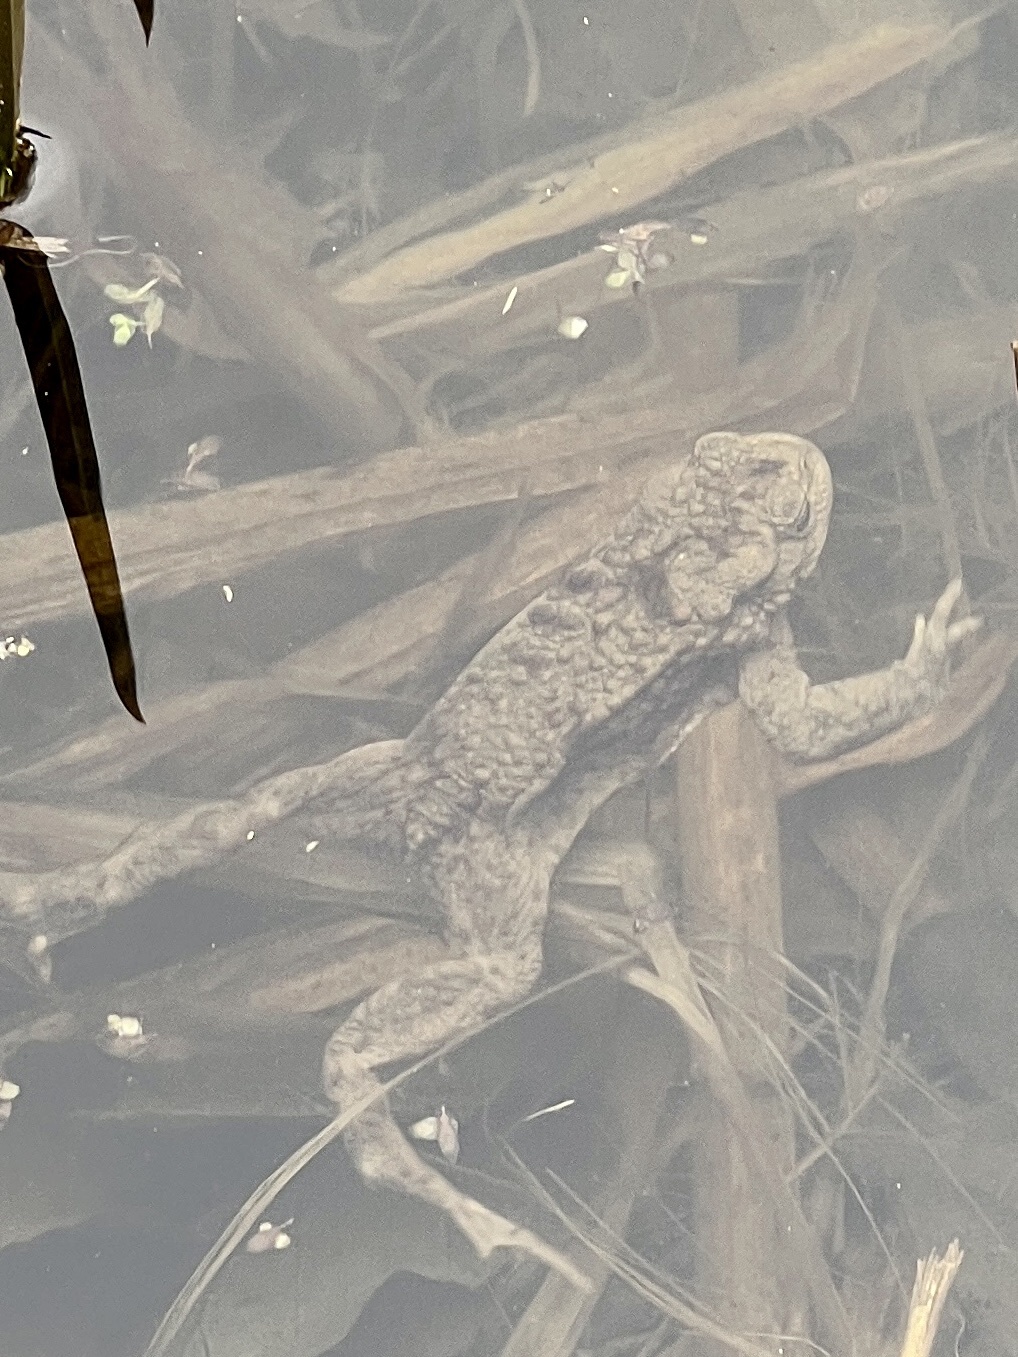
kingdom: Animalia
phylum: Chordata
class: Amphibia
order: Anura
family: Bufonidae
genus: Bufo
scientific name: Bufo bufo
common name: Common toad
